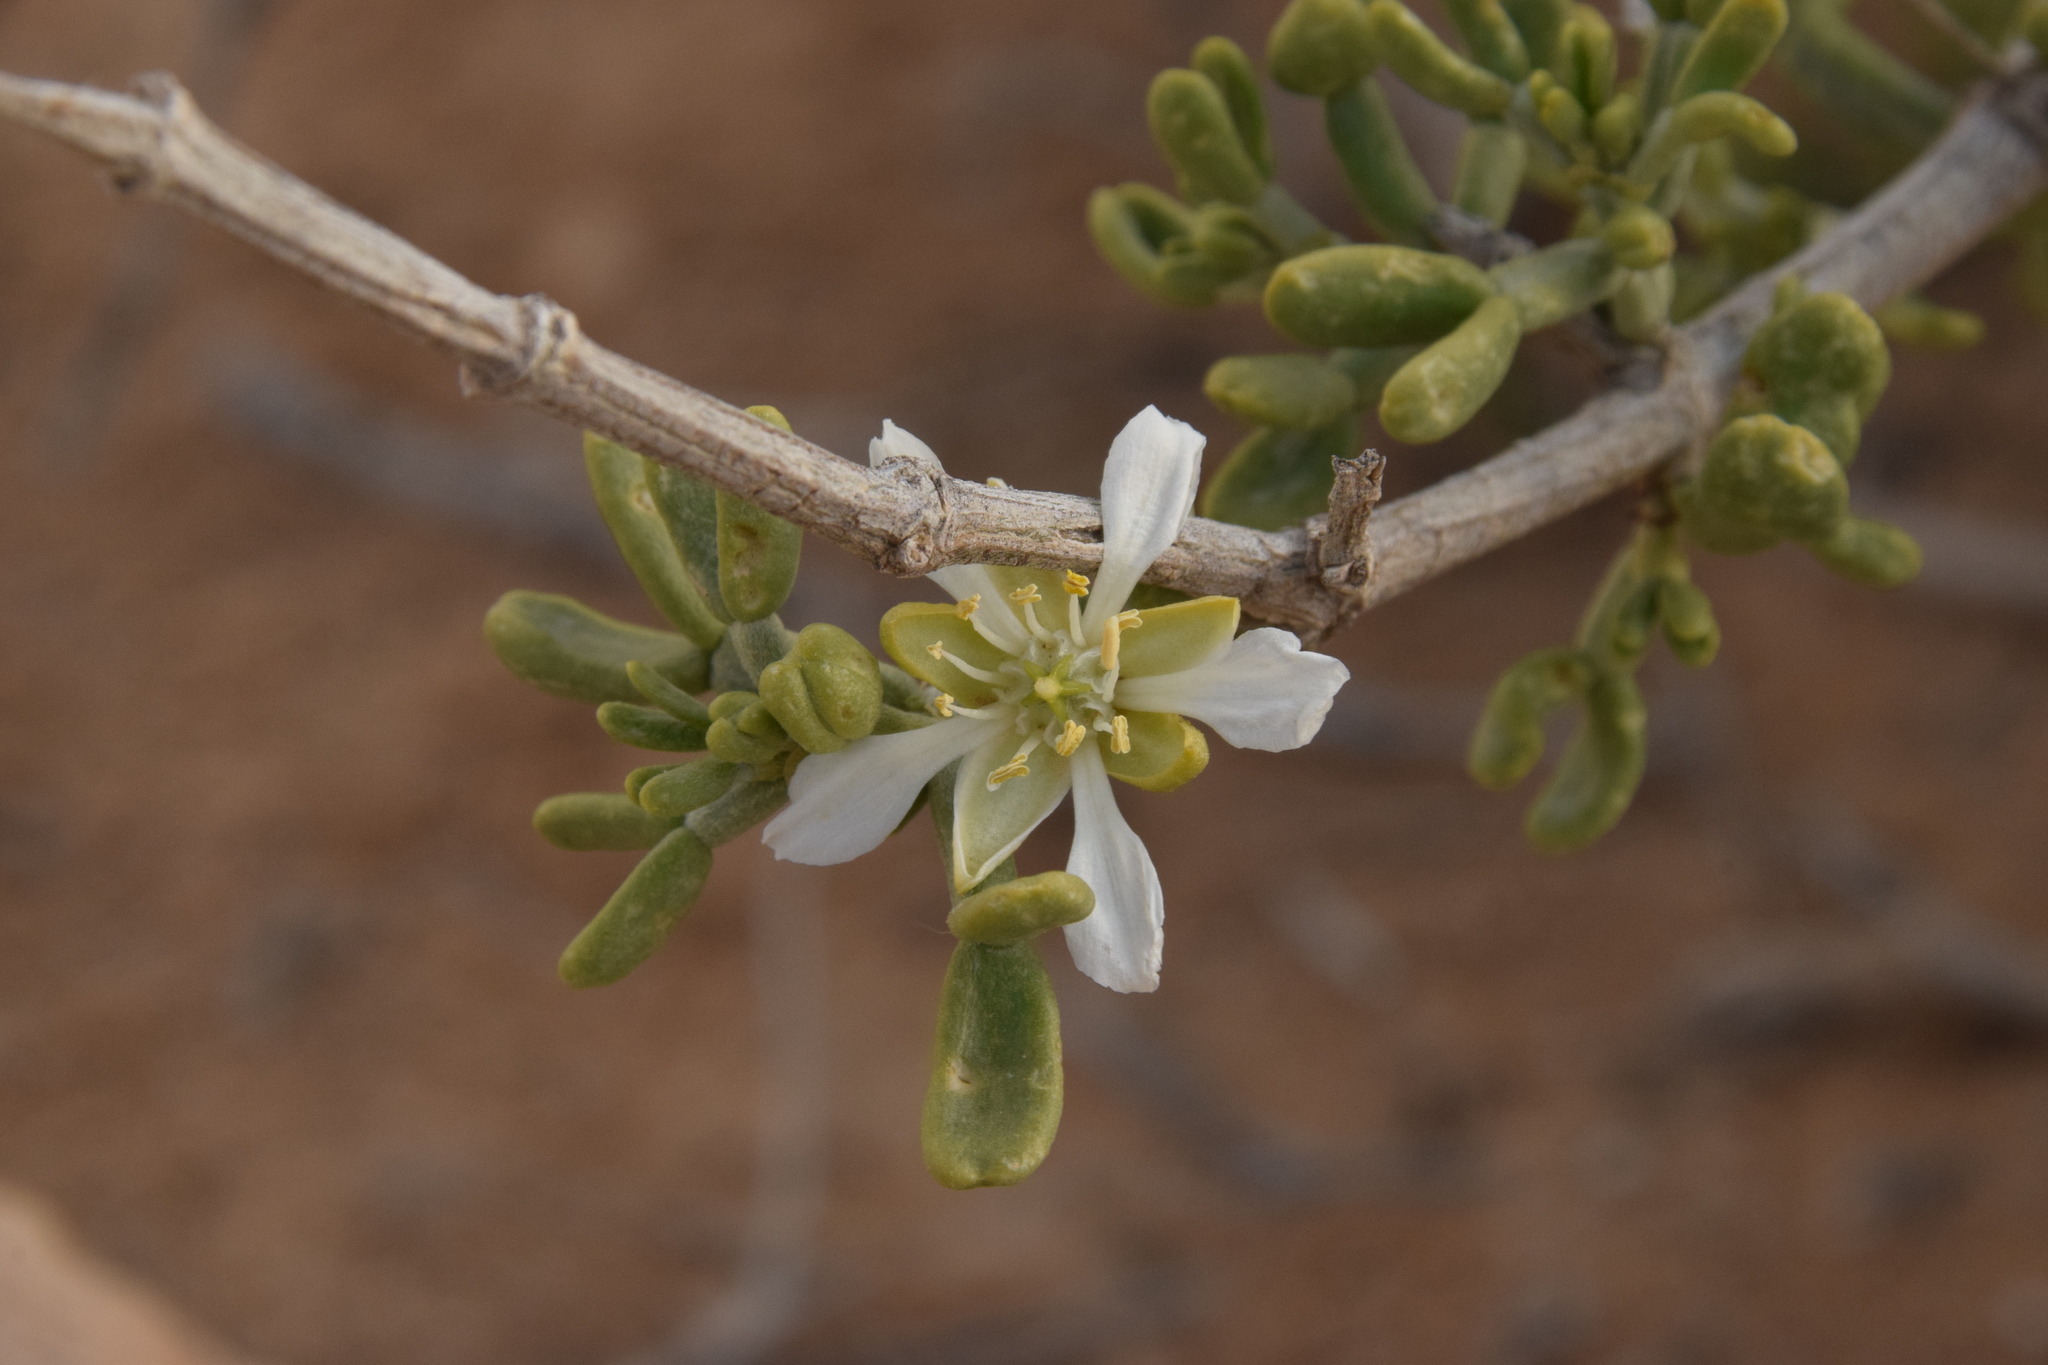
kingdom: Plantae
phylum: Tracheophyta
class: Magnoliopsida
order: Zygophyllales
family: Zygophyllaceae
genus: Tetraena
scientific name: Tetraena dumosa
